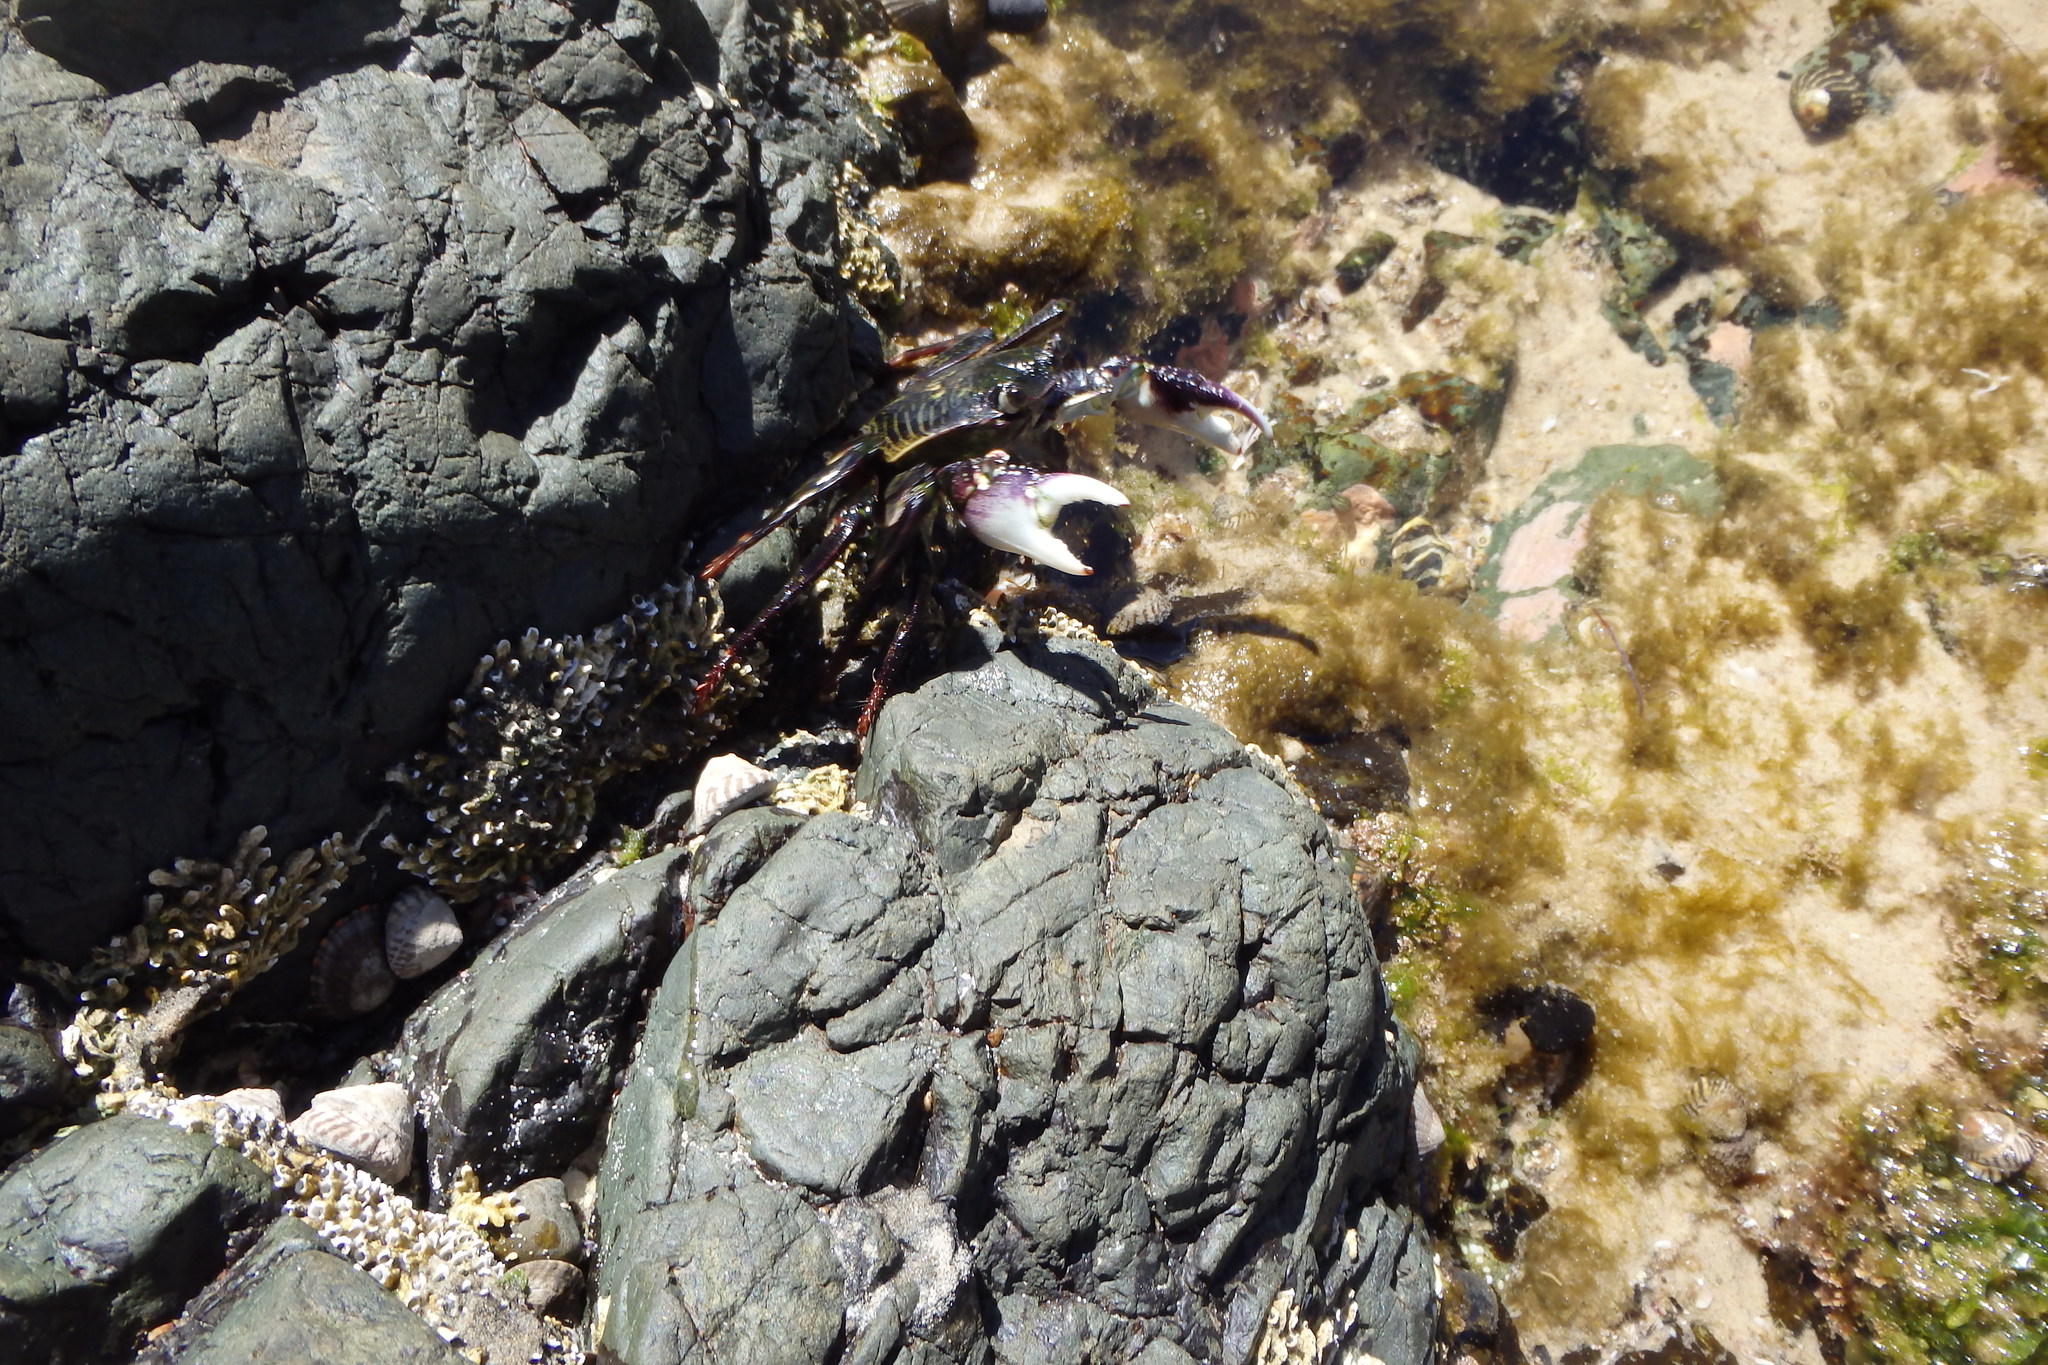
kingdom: Animalia
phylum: Arthropoda
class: Malacostraca
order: Decapoda
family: Grapsidae
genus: Leptograpsus
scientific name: Leptograpsus variegatus
